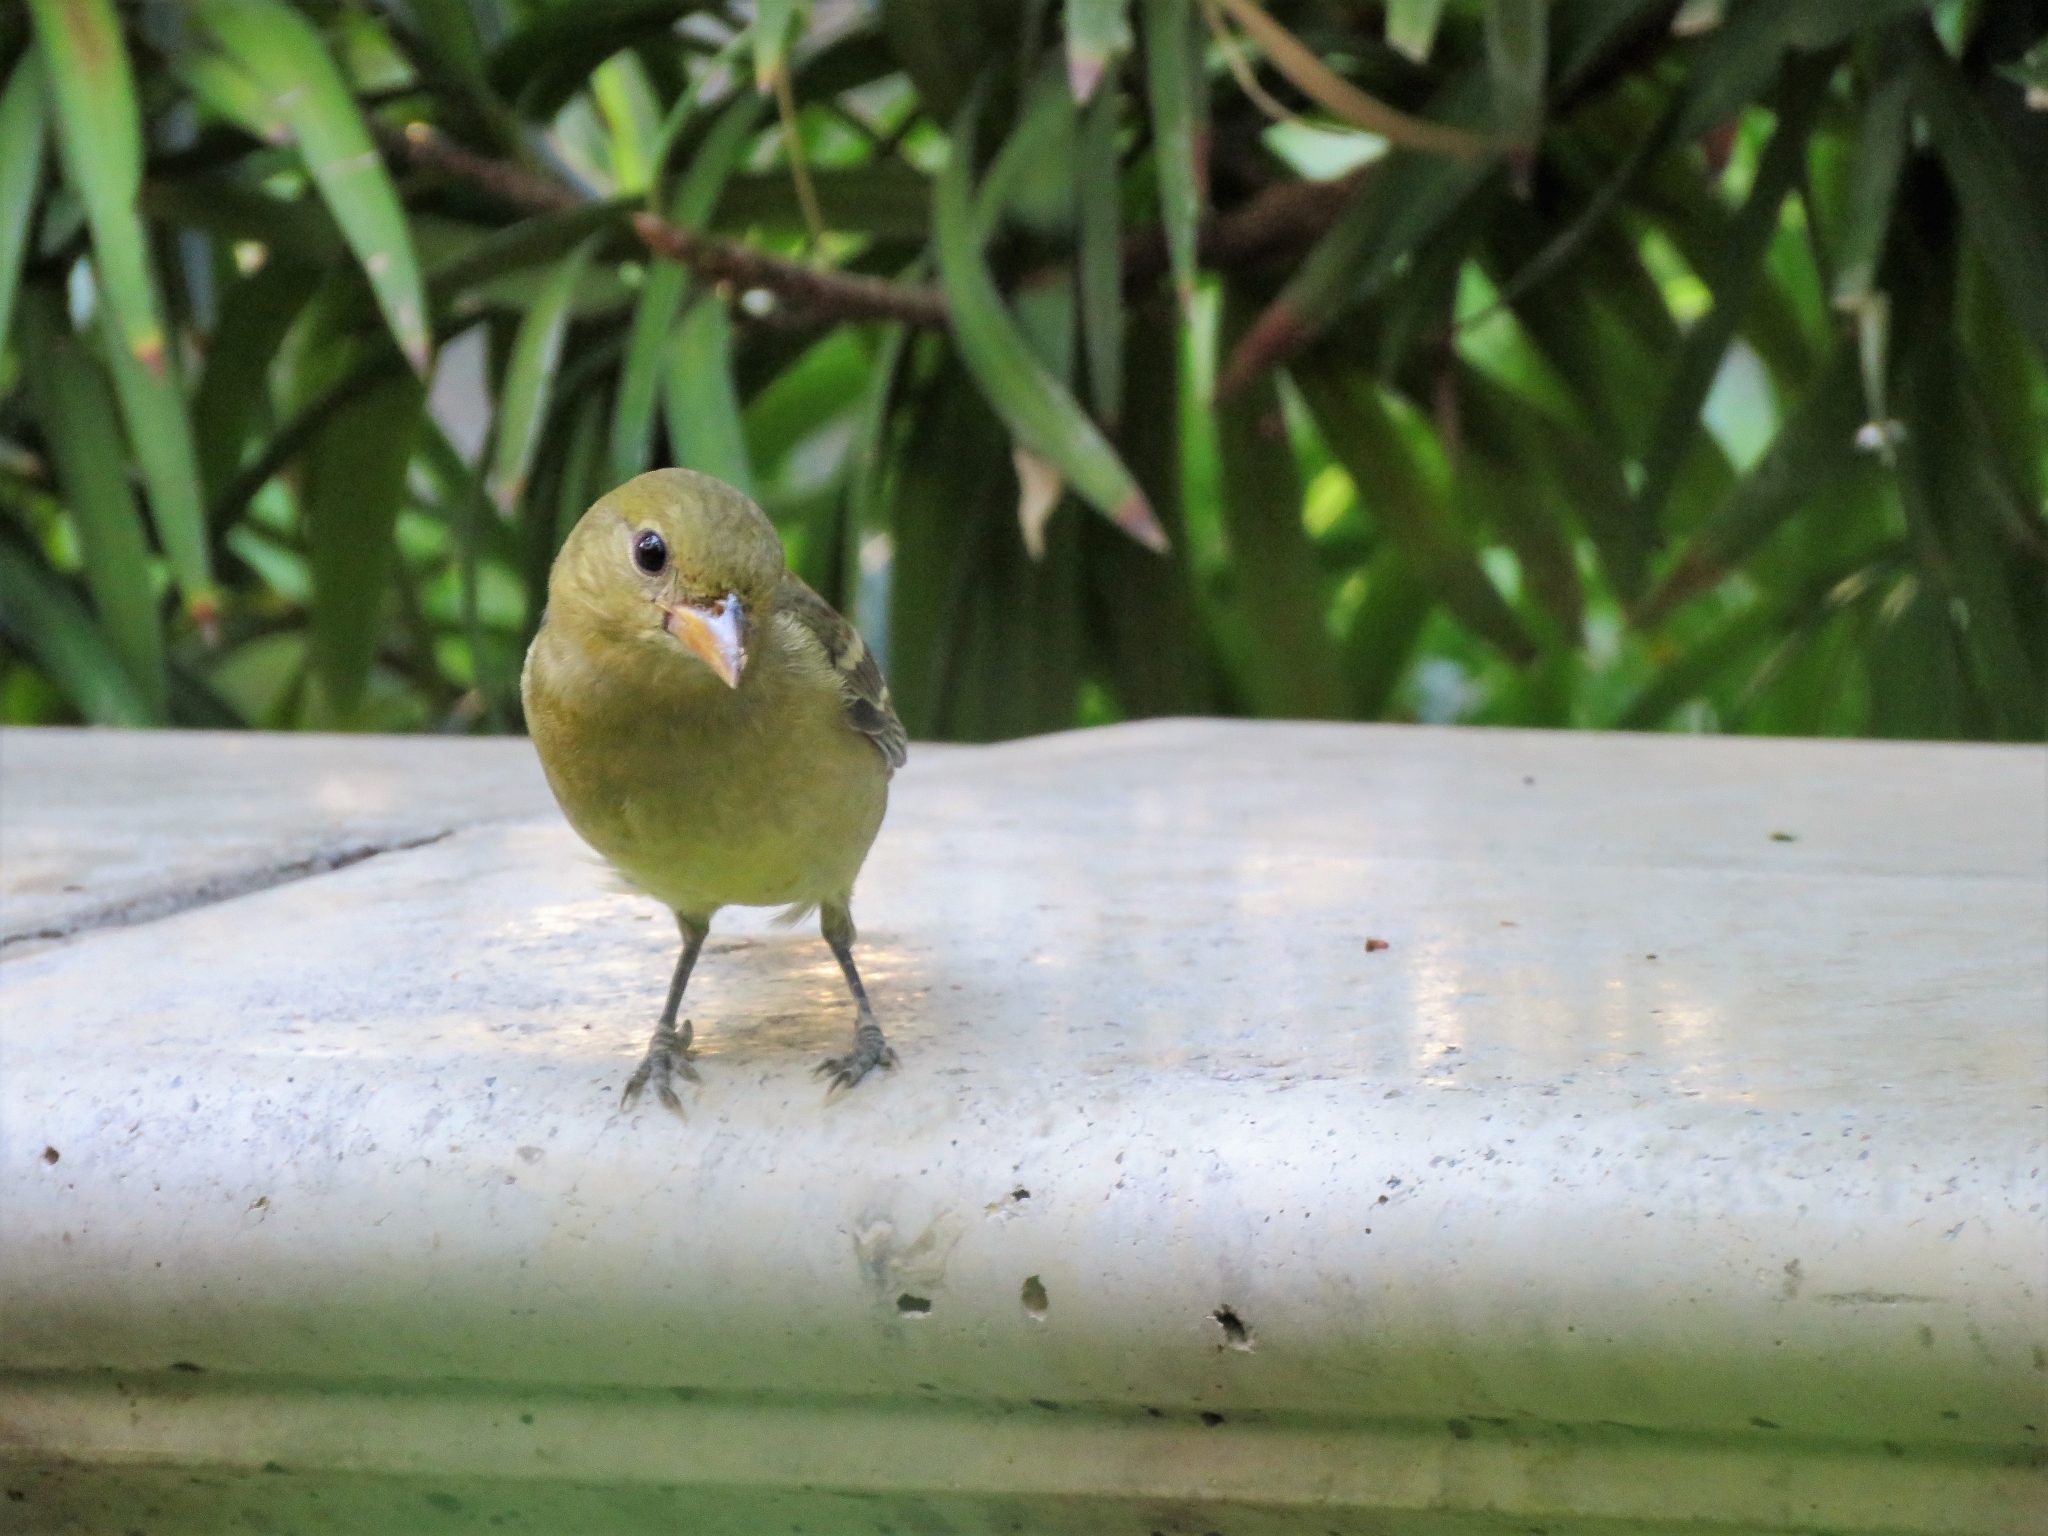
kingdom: Animalia
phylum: Chordata
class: Aves
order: Passeriformes
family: Cardinalidae
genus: Piranga
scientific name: Piranga ludoviciana
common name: Western tanager
